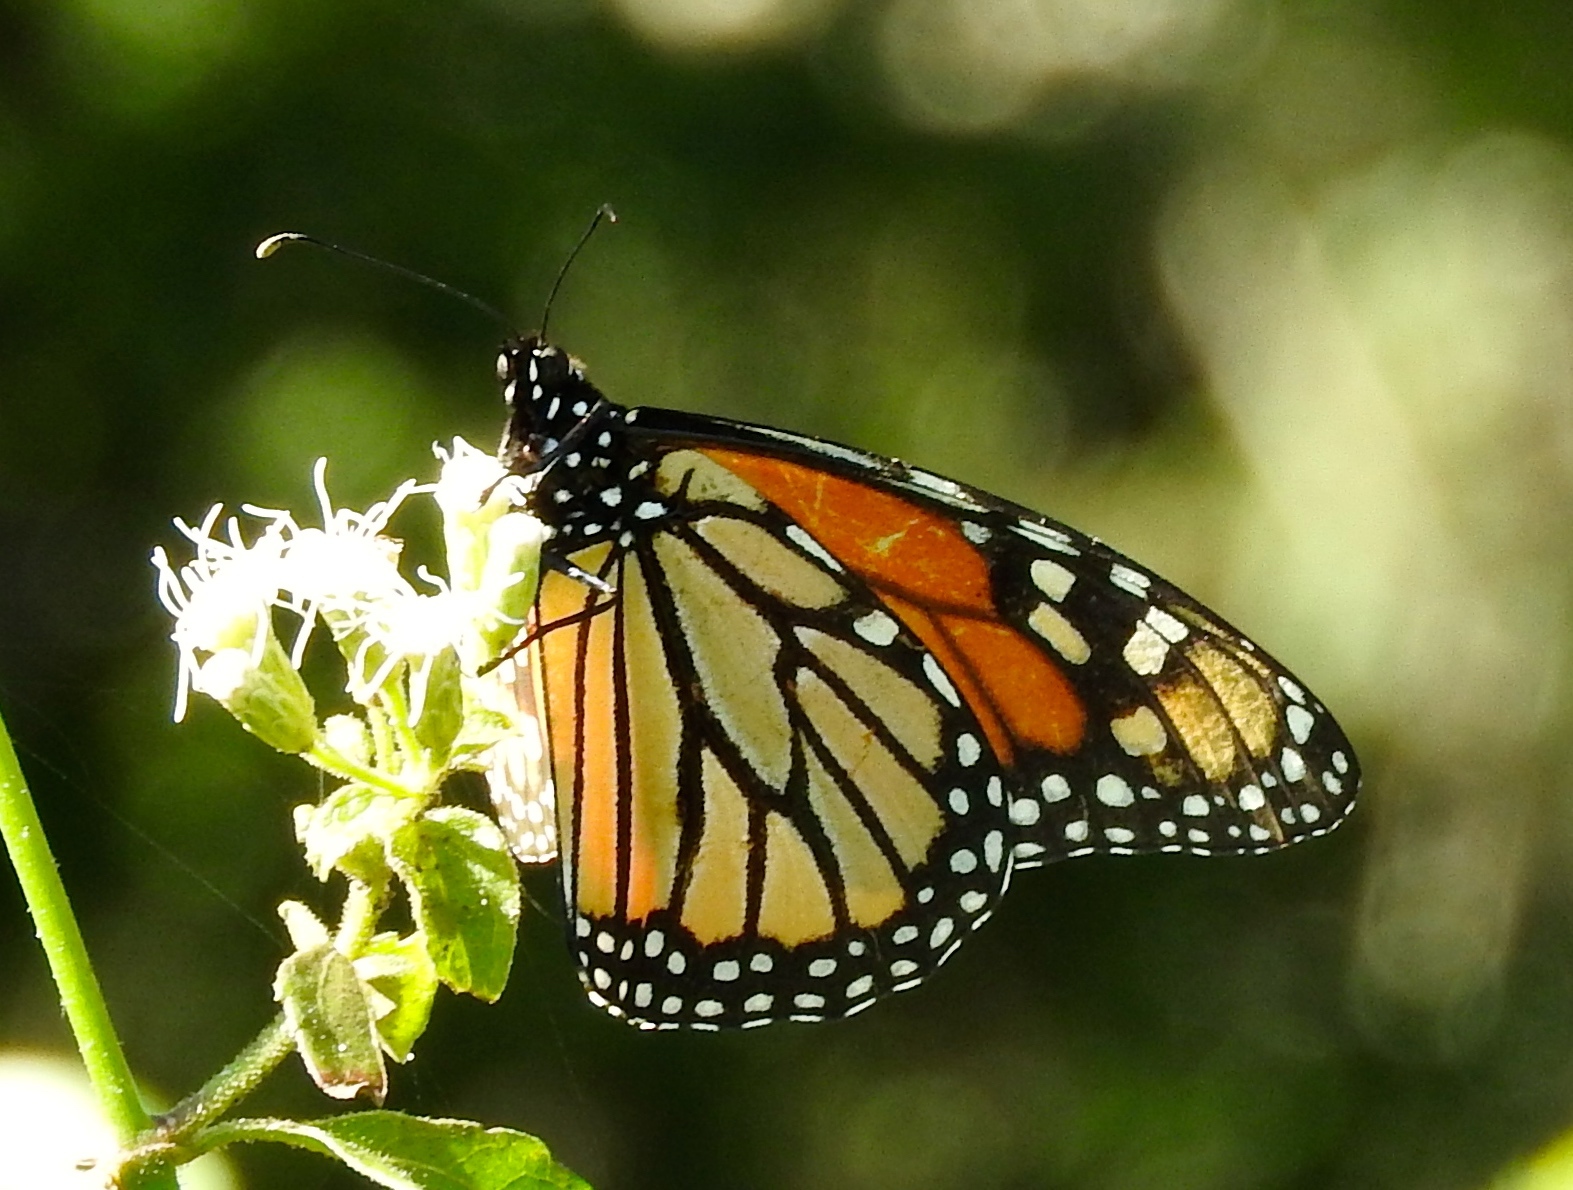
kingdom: Animalia
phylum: Arthropoda
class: Insecta
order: Lepidoptera
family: Nymphalidae
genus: Danaus
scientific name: Danaus plexippus
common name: Monarch
